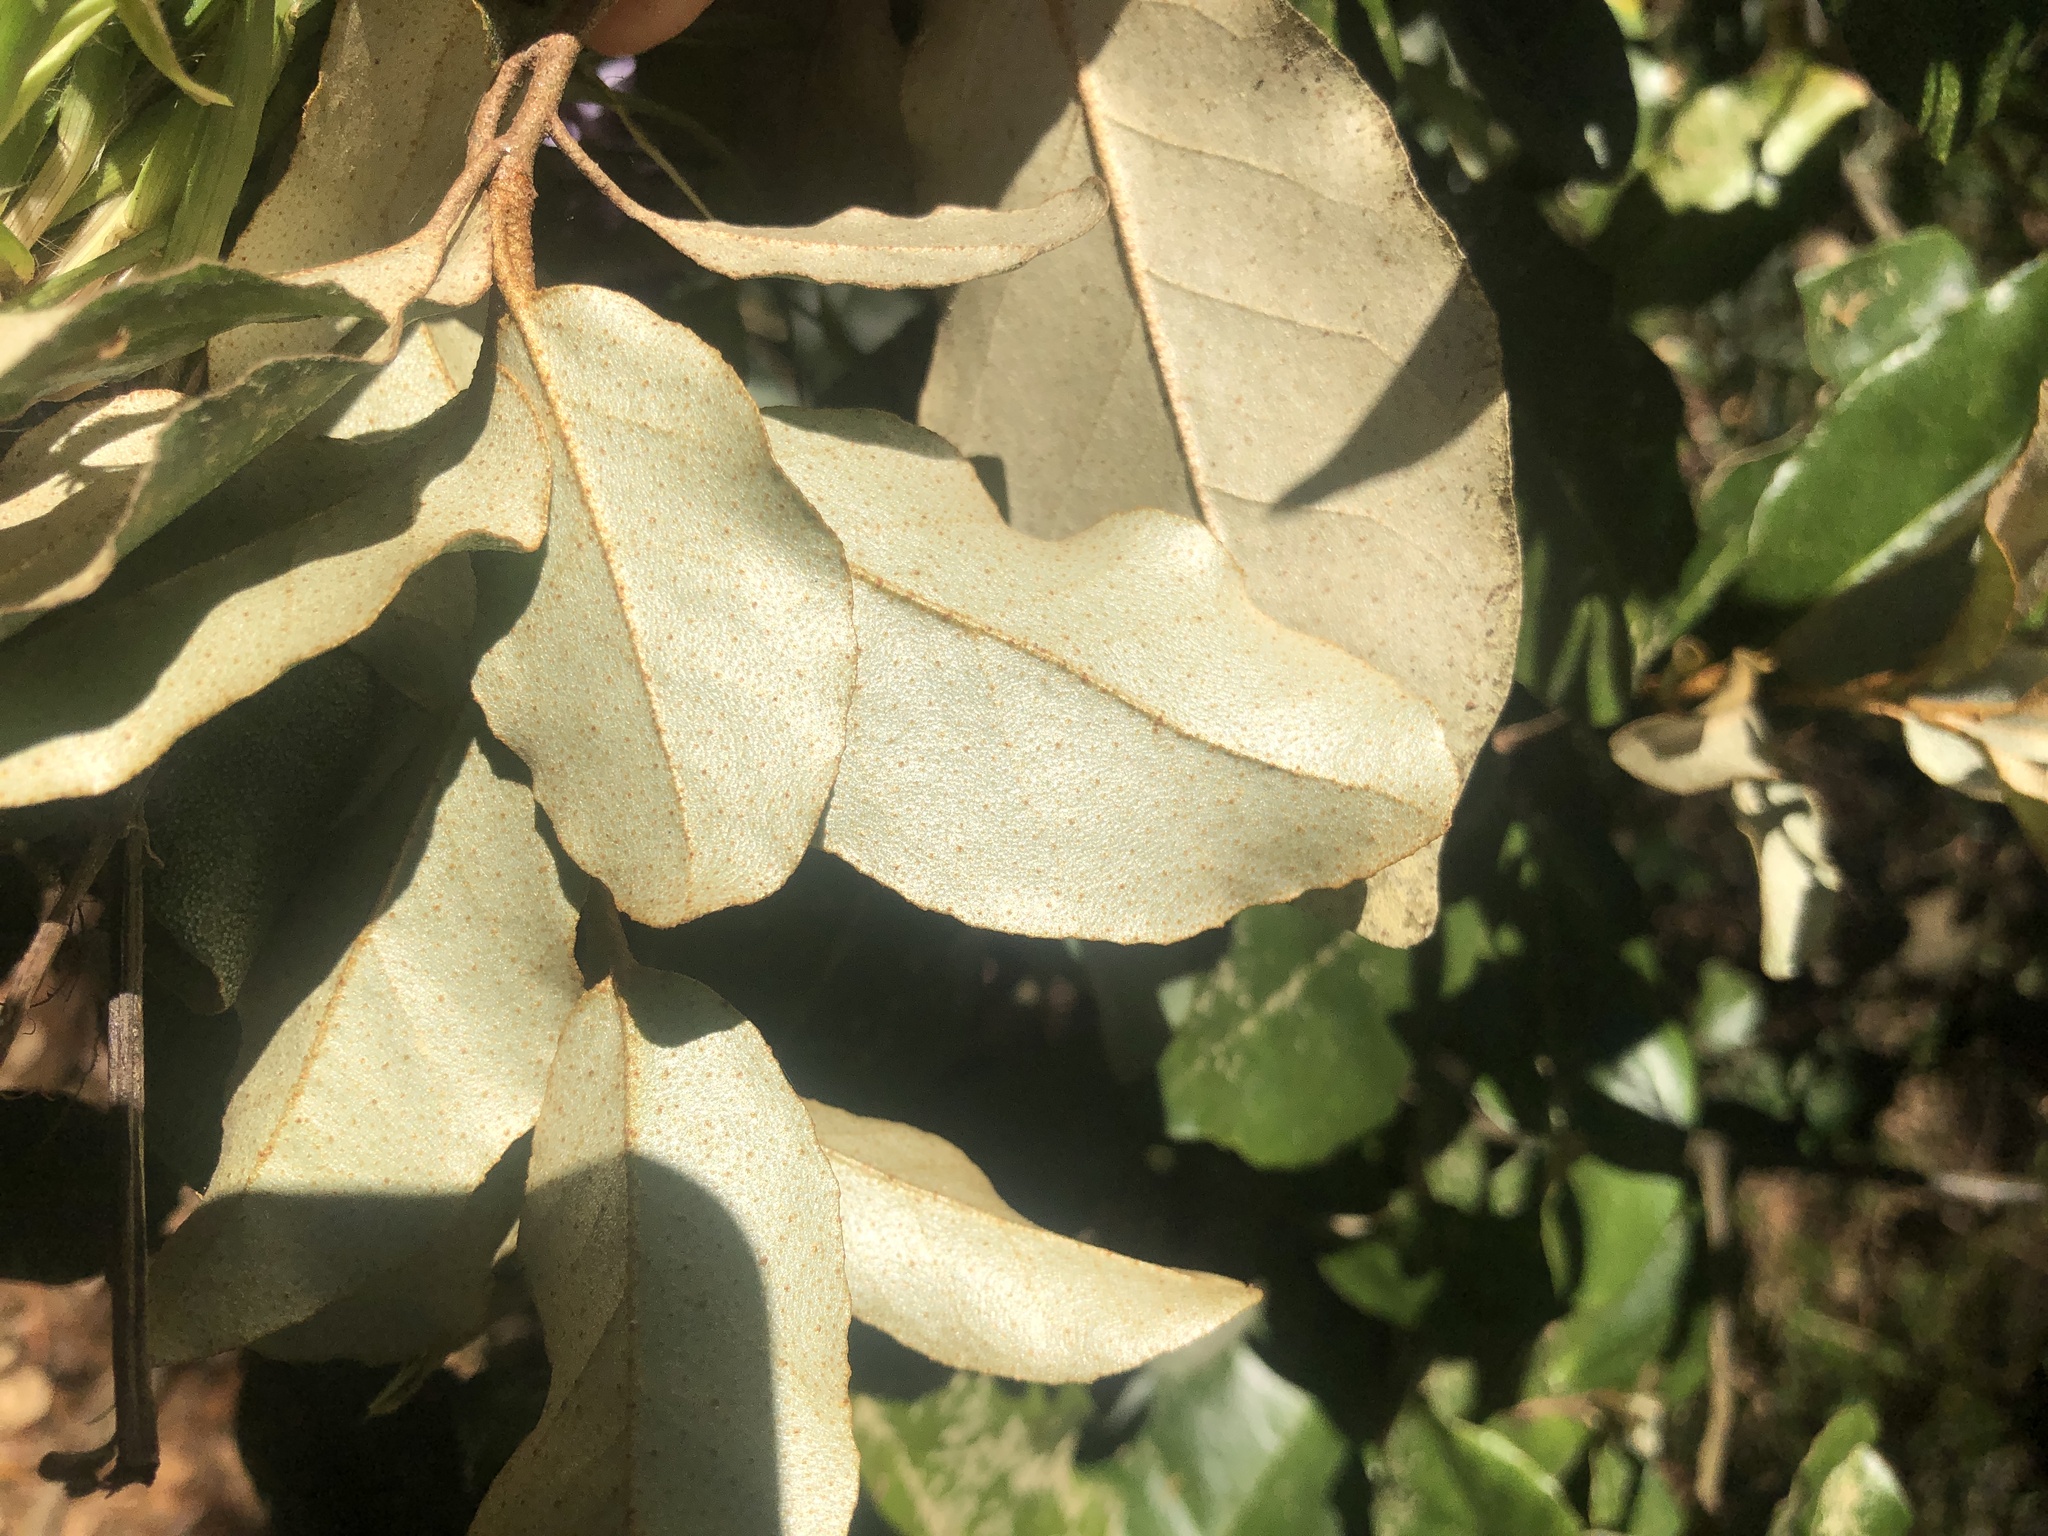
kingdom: Plantae
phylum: Tracheophyta
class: Magnoliopsida
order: Rosales
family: Elaeagnaceae
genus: Elaeagnus
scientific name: Elaeagnus pungens
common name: Spiny oleaster
